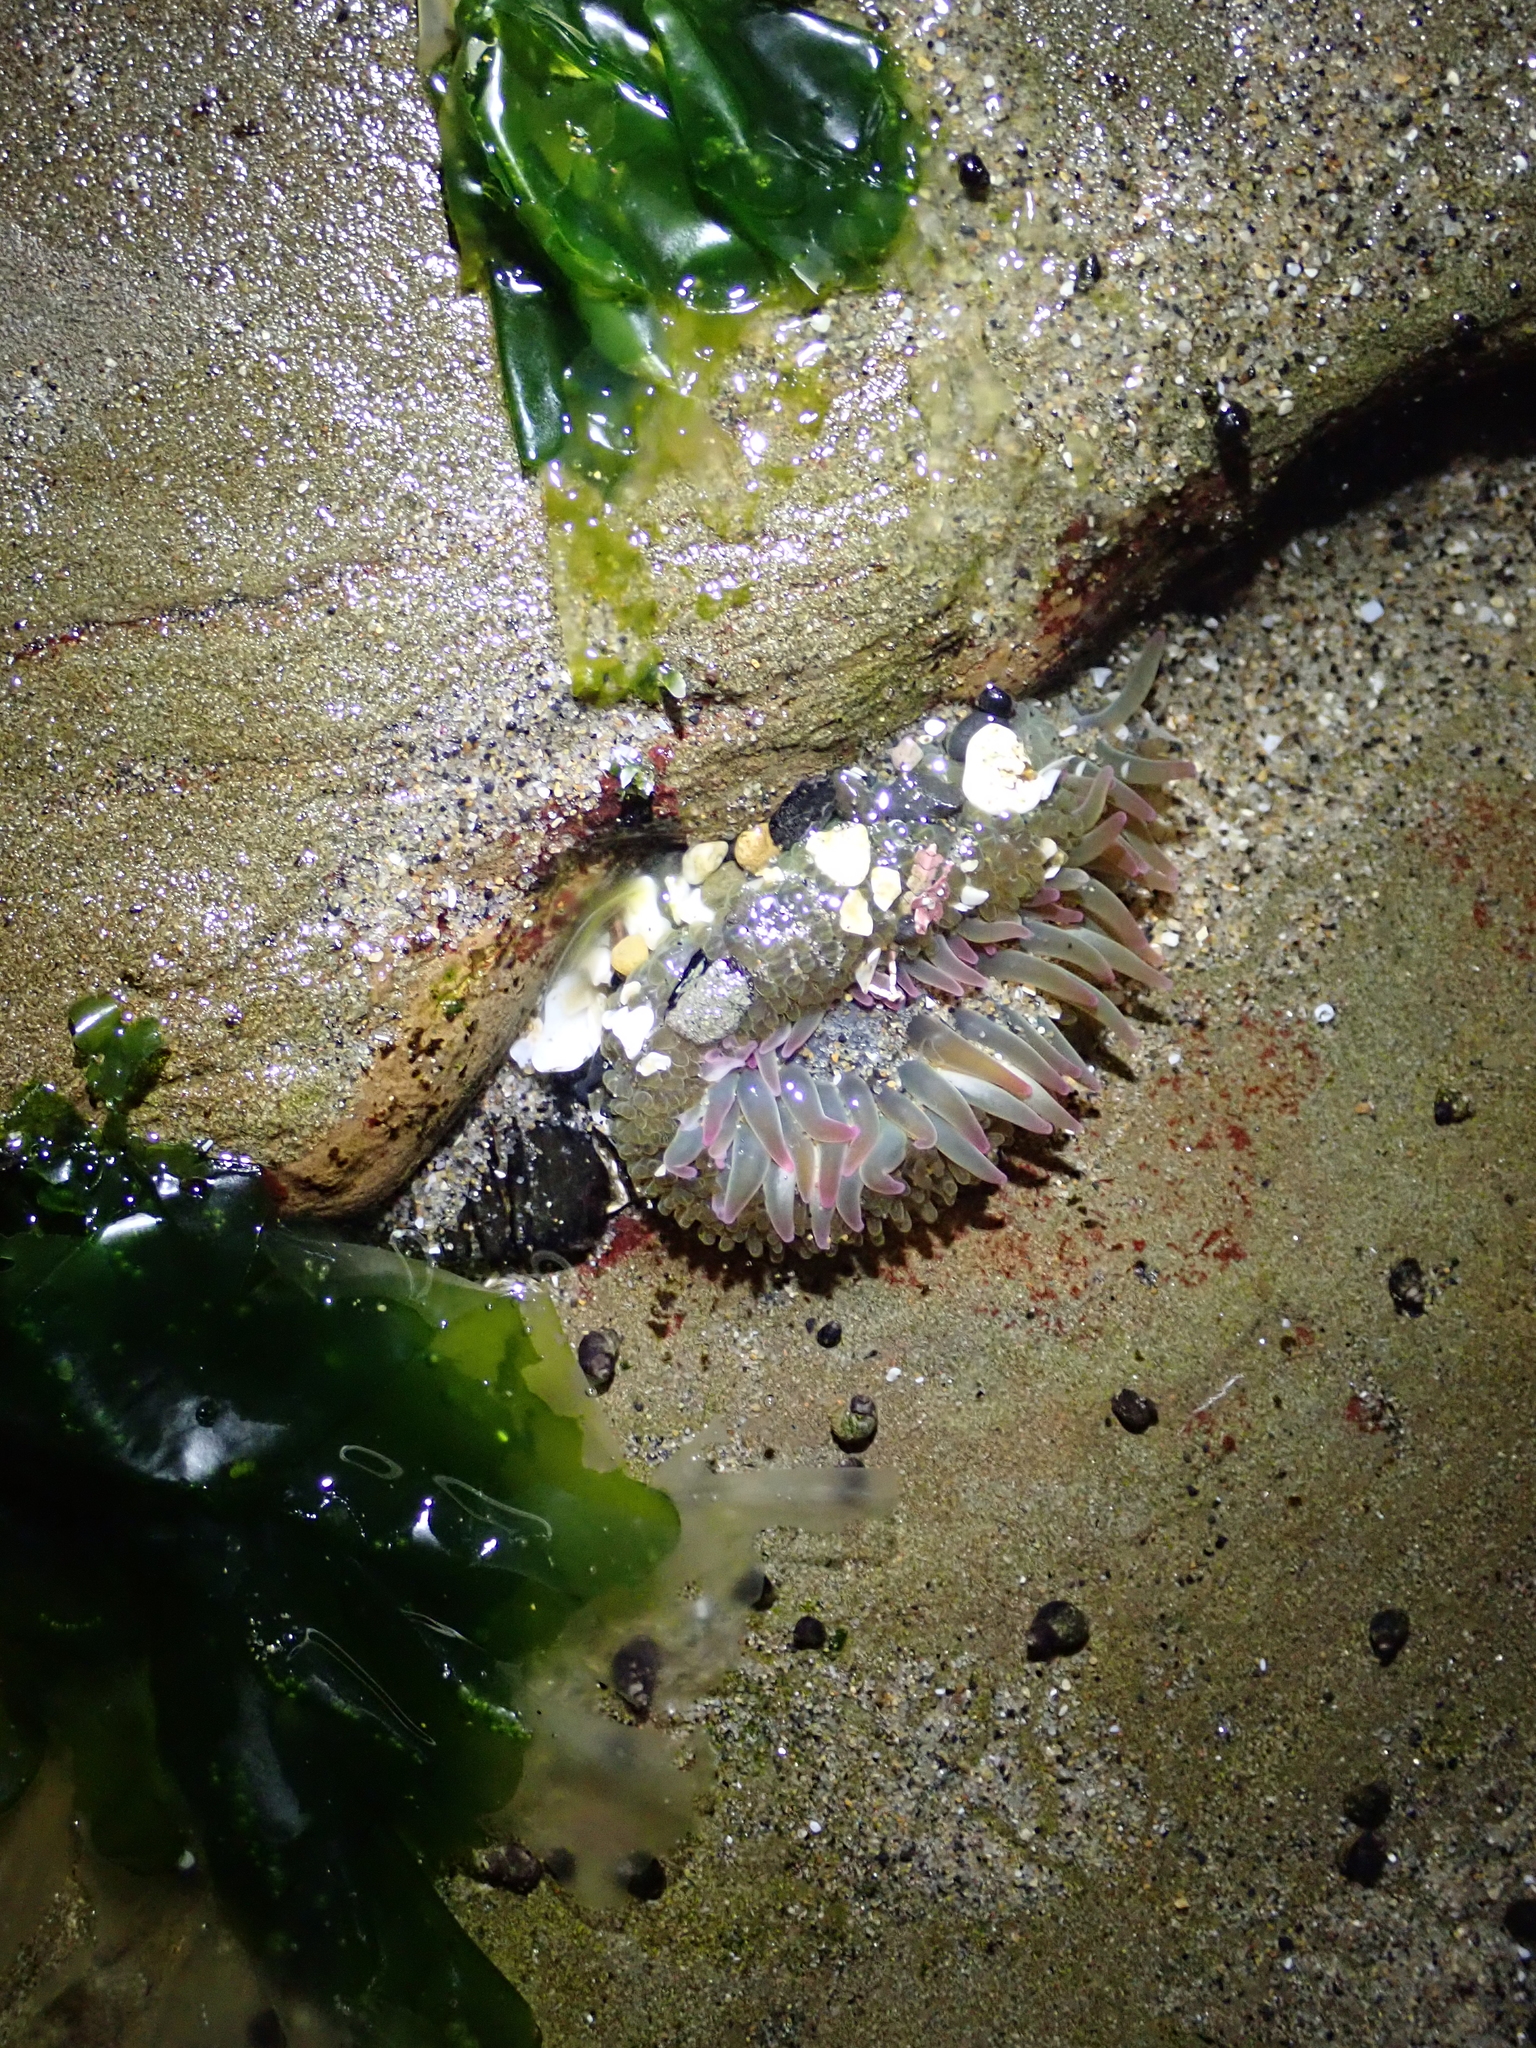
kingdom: Animalia
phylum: Cnidaria
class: Anthozoa
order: Actiniaria
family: Actiniidae
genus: Anthopleura
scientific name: Anthopleura elegantissima
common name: Clonal anemone
